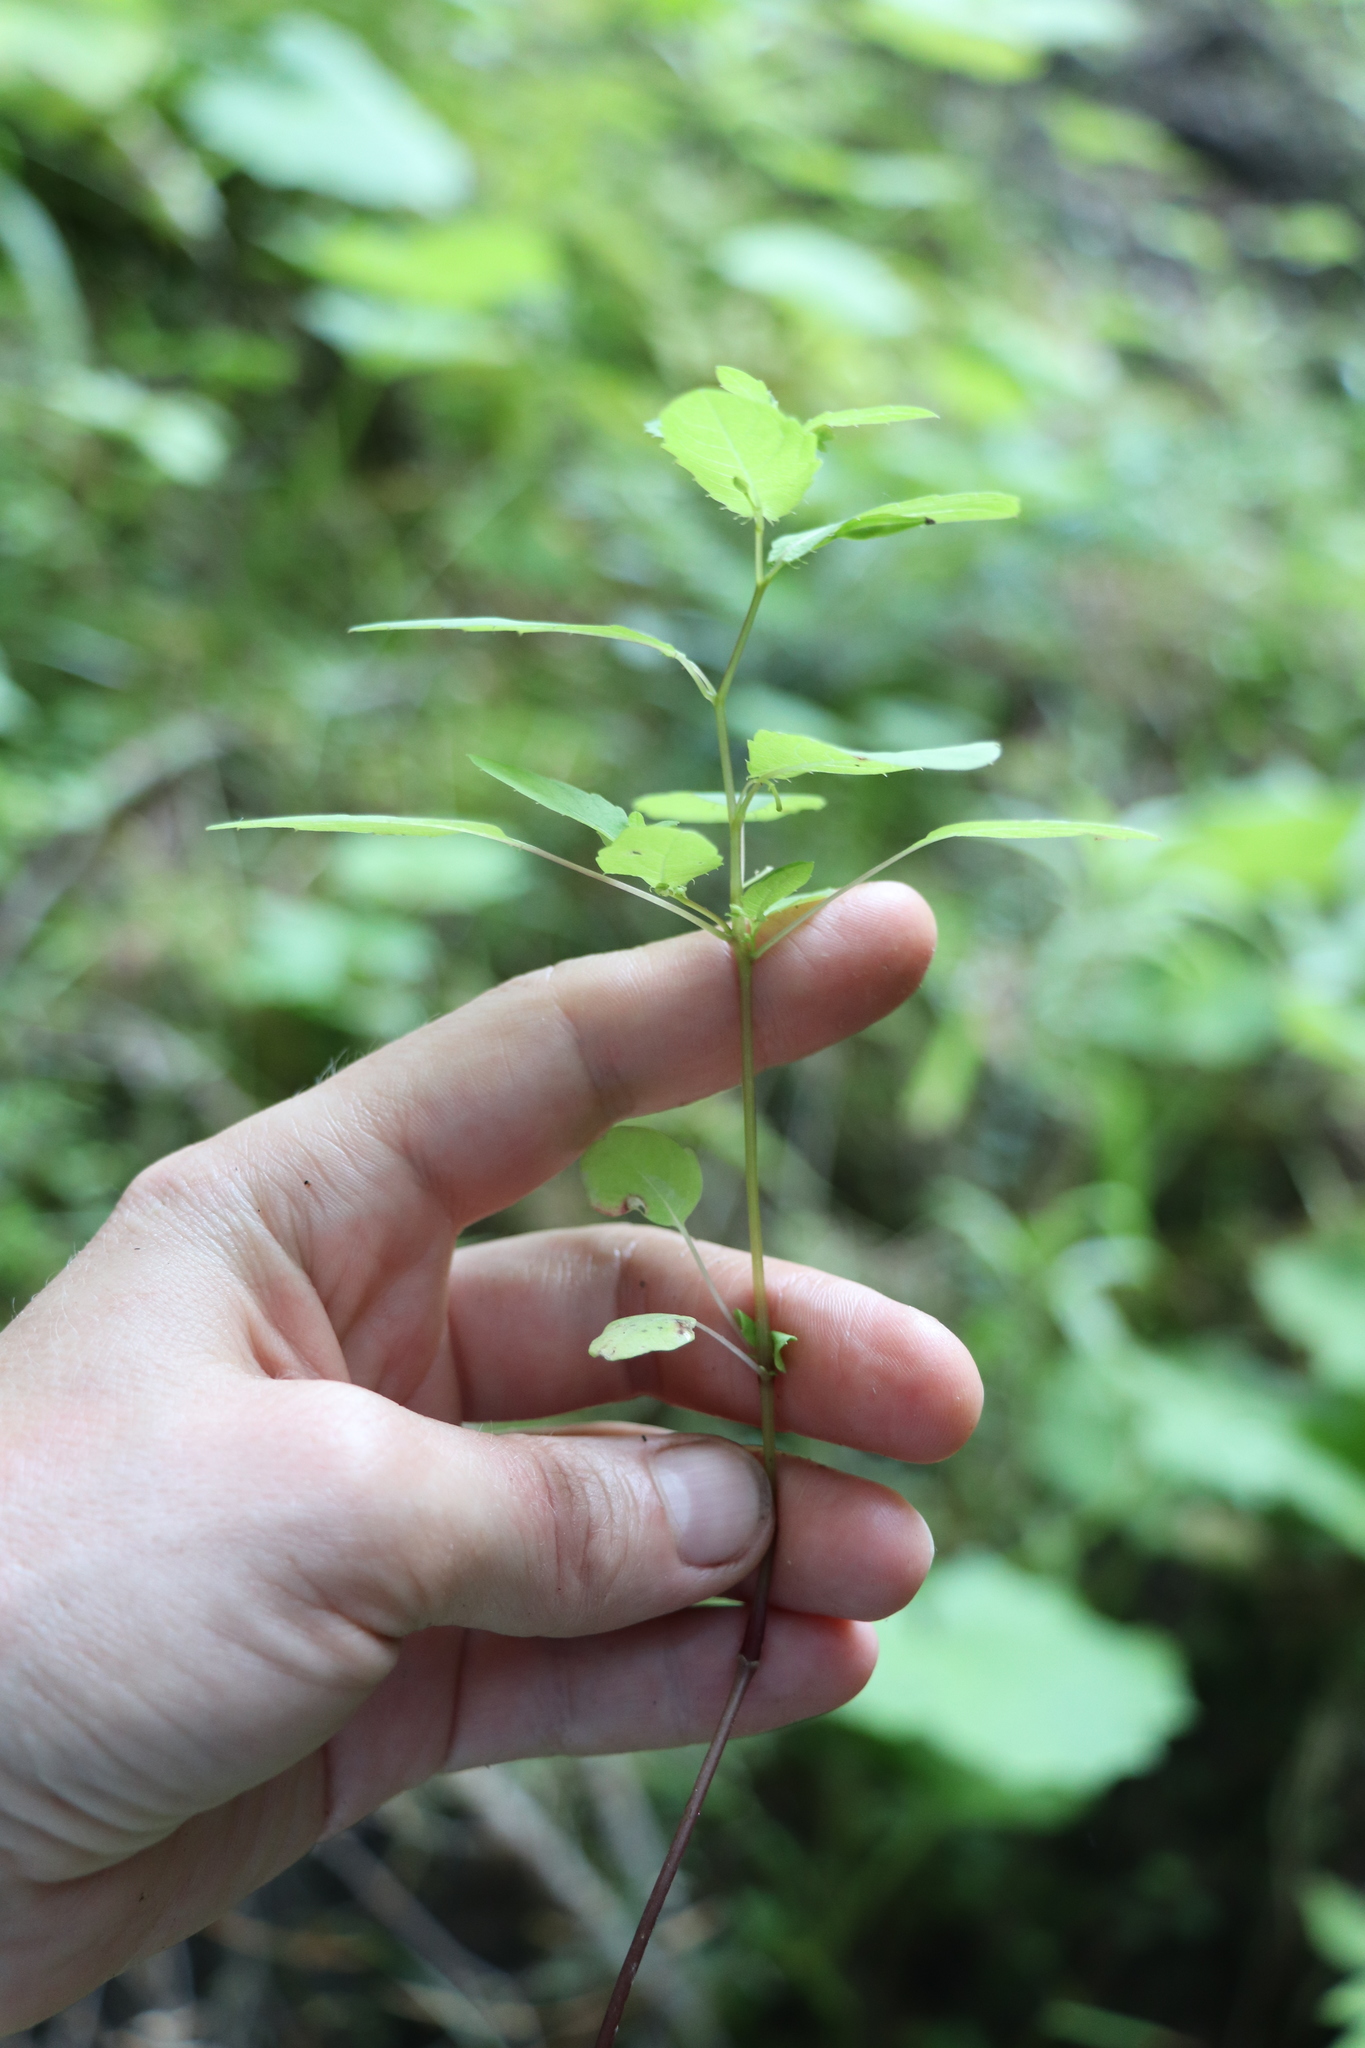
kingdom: Plantae
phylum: Tracheophyta
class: Magnoliopsida
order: Ericales
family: Balsaminaceae
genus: Impatiens
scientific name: Impatiens noli-tangere
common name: Touch-me-not balsam
